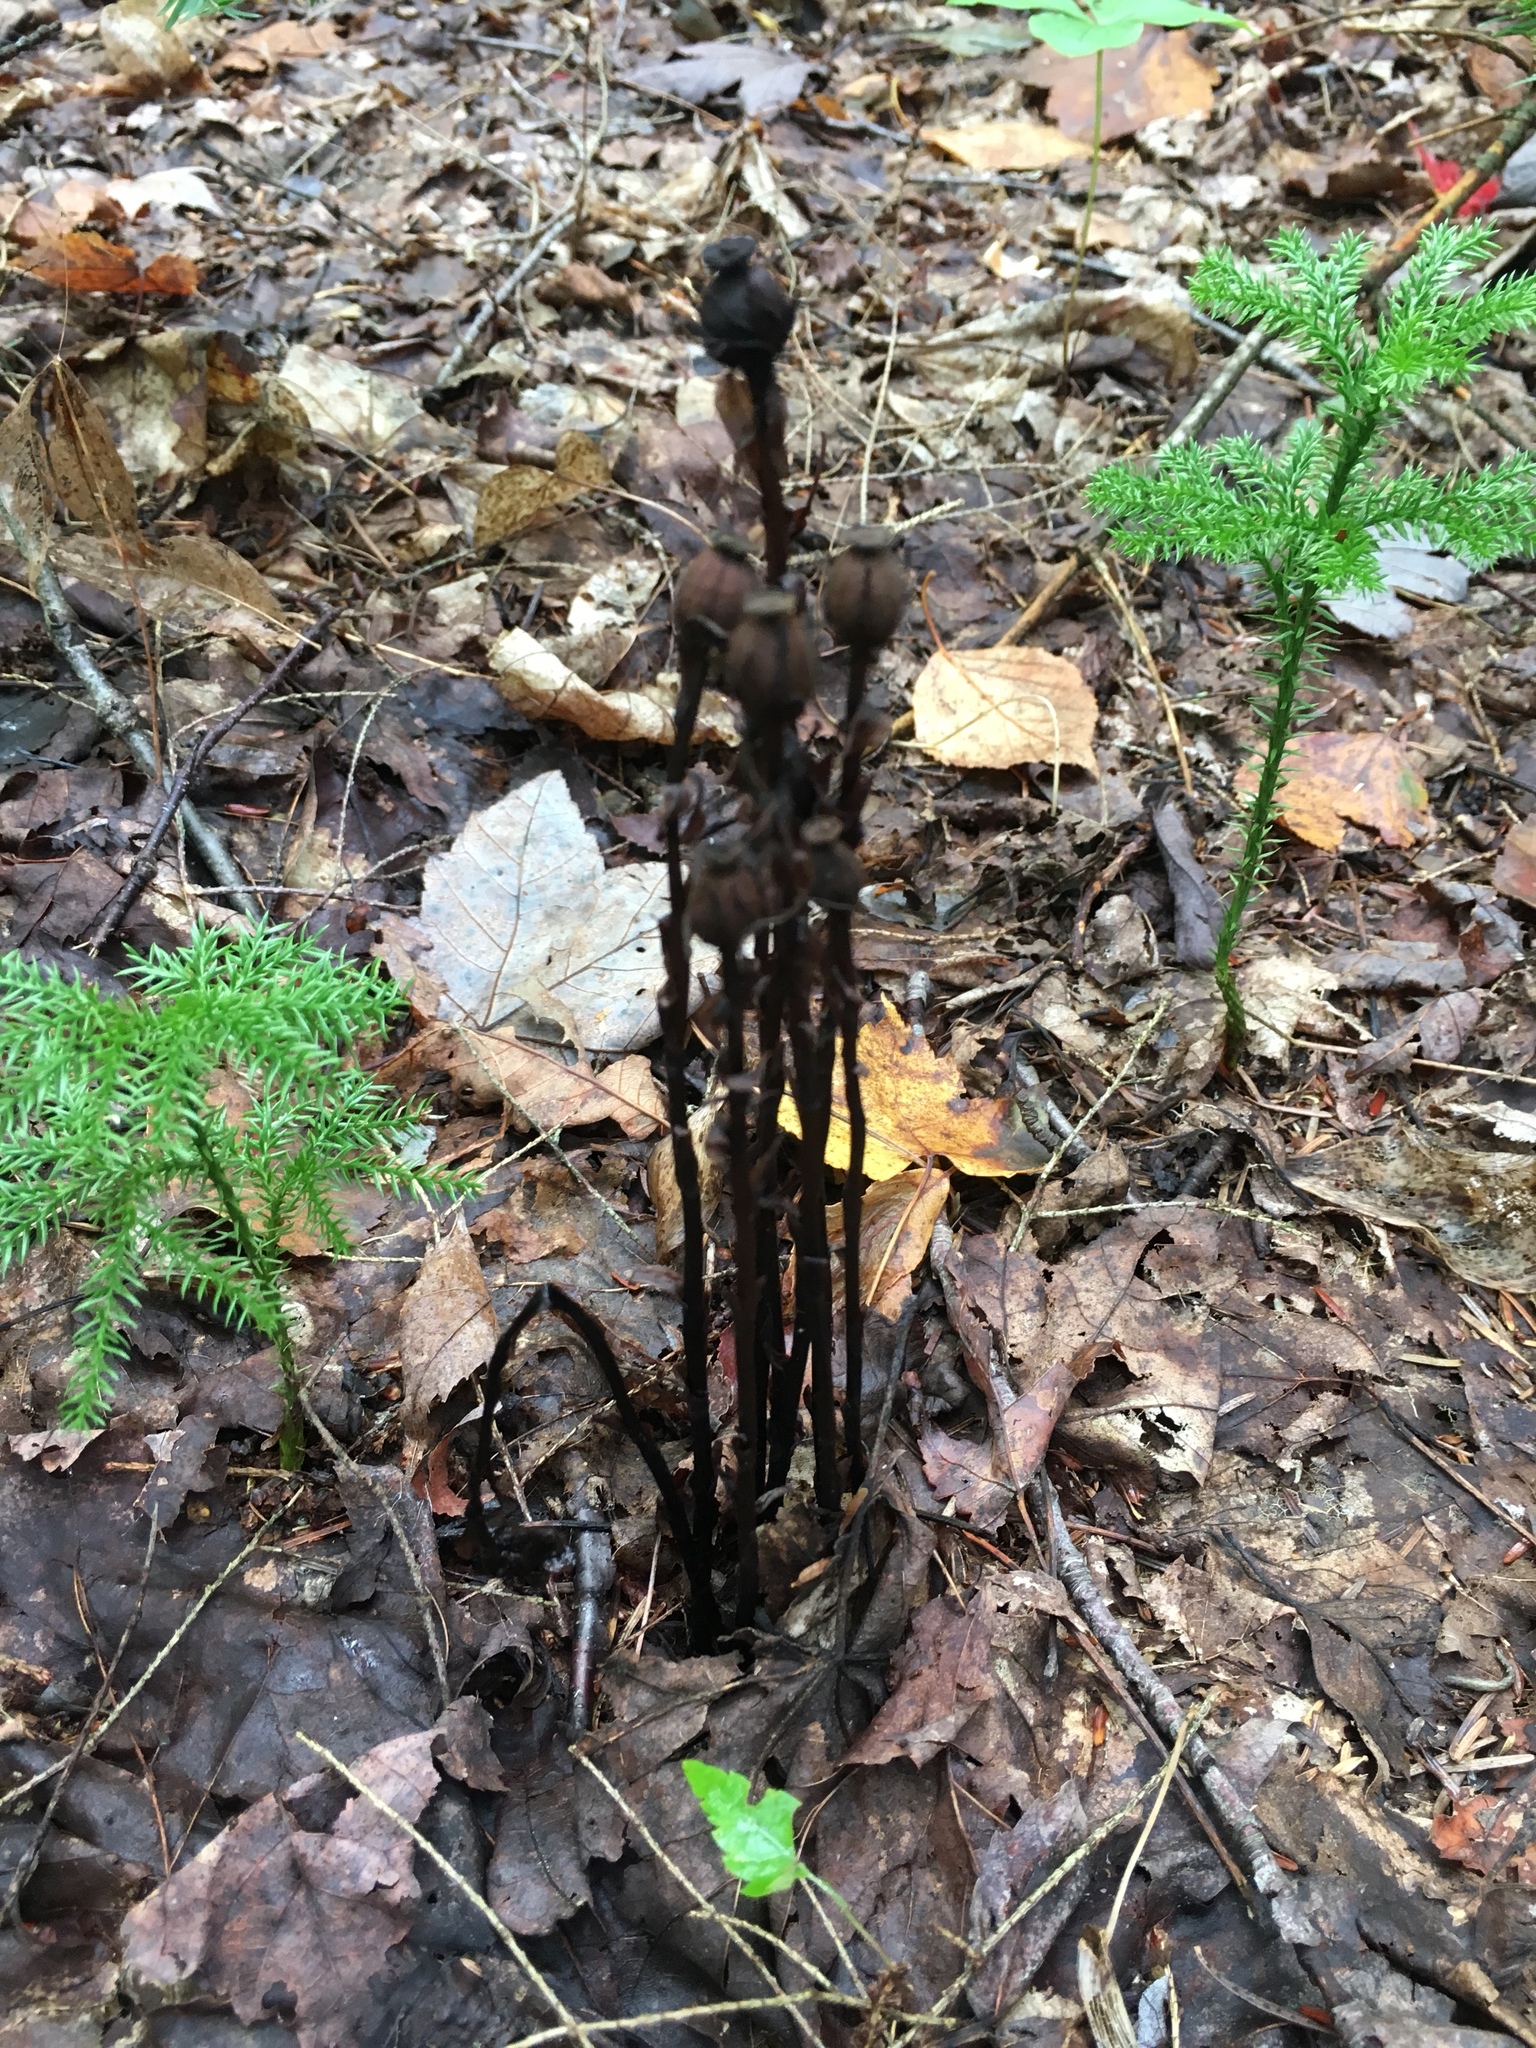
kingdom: Plantae
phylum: Tracheophyta
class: Magnoliopsida
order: Ericales
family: Ericaceae
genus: Monotropa
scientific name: Monotropa uniflora
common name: Convulsion root
